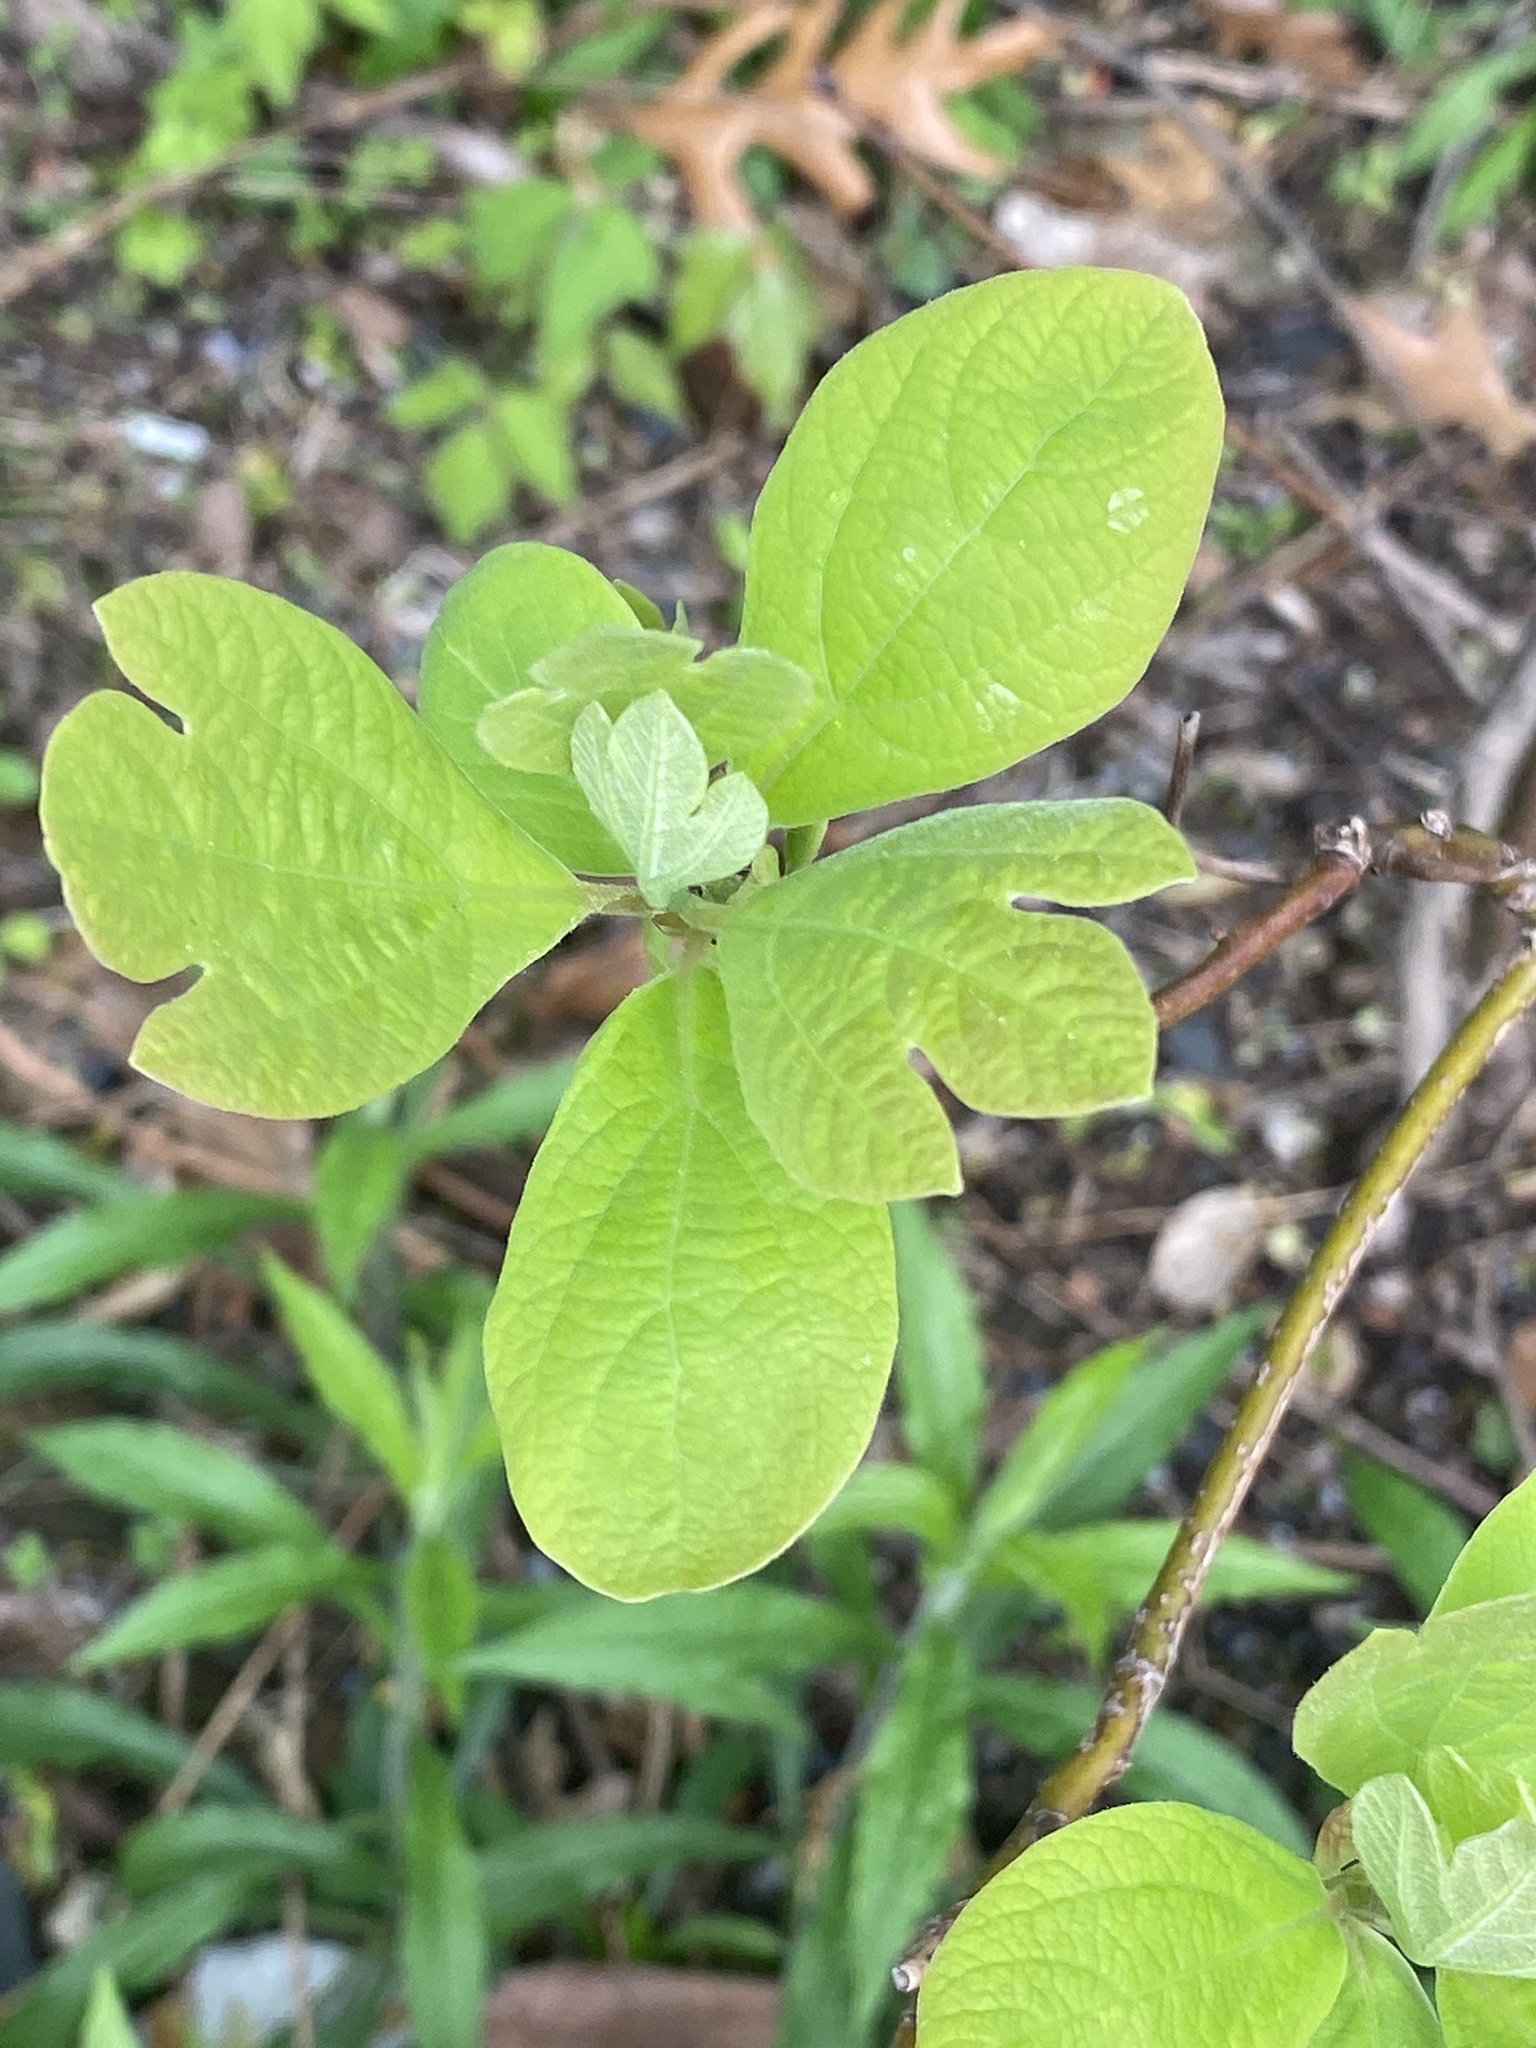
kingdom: Plantae
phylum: Tracheophyta
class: Magnoliopsida
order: Laurales
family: Lauraceae
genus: Sassafras
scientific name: Sassafras albidum
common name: Sassafras
